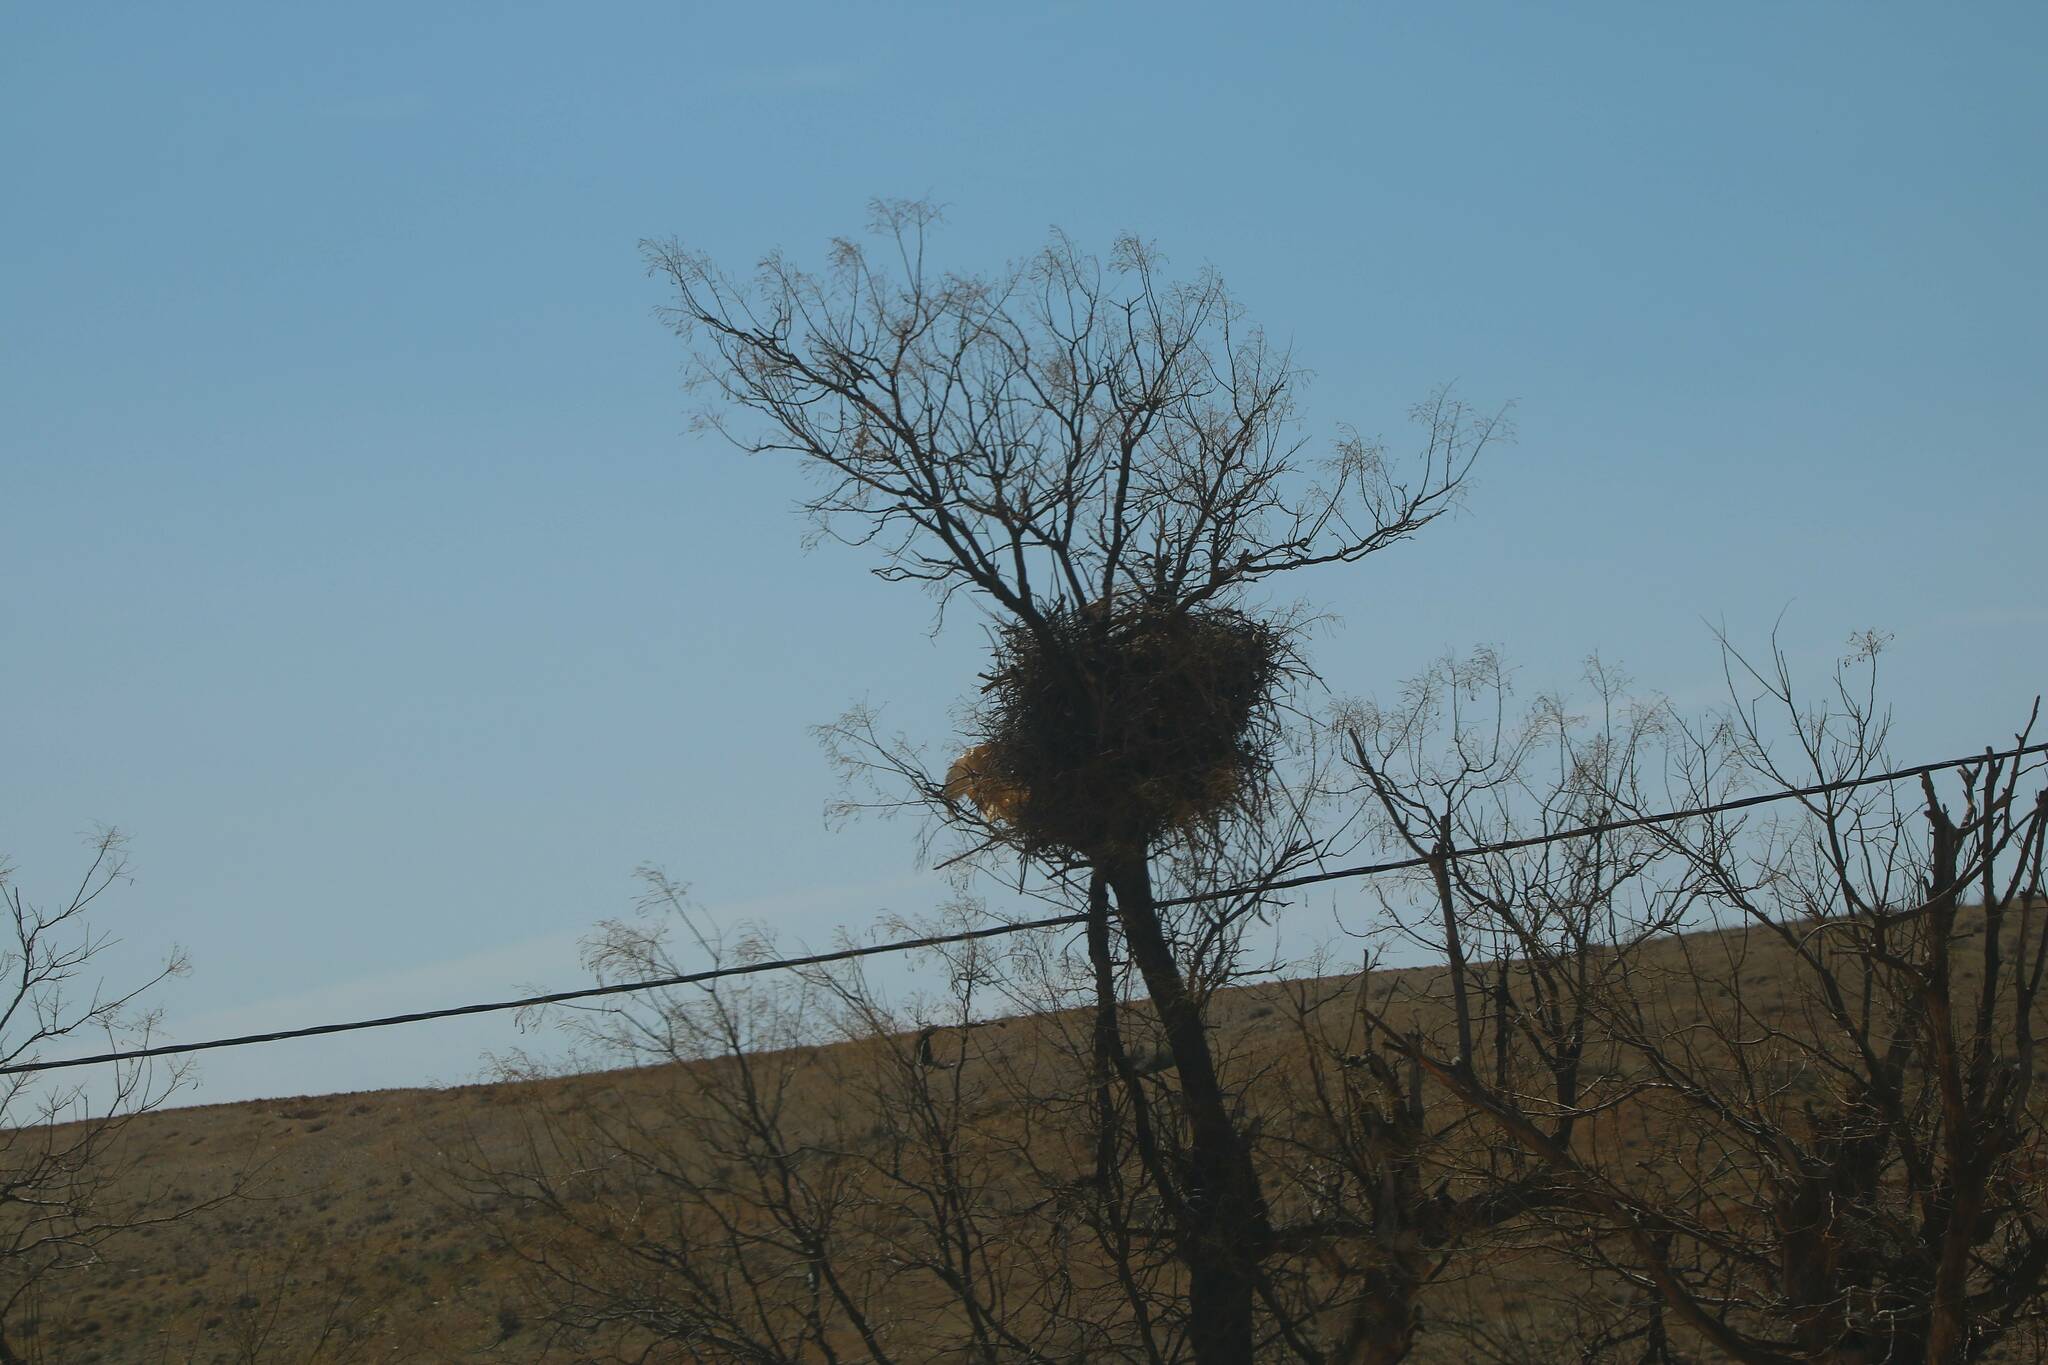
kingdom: Animalia
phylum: Chordata
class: Aves
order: Ciconiiformes
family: Ciconiidae
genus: Ciconia
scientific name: Ciconia ciconia
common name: White stork
